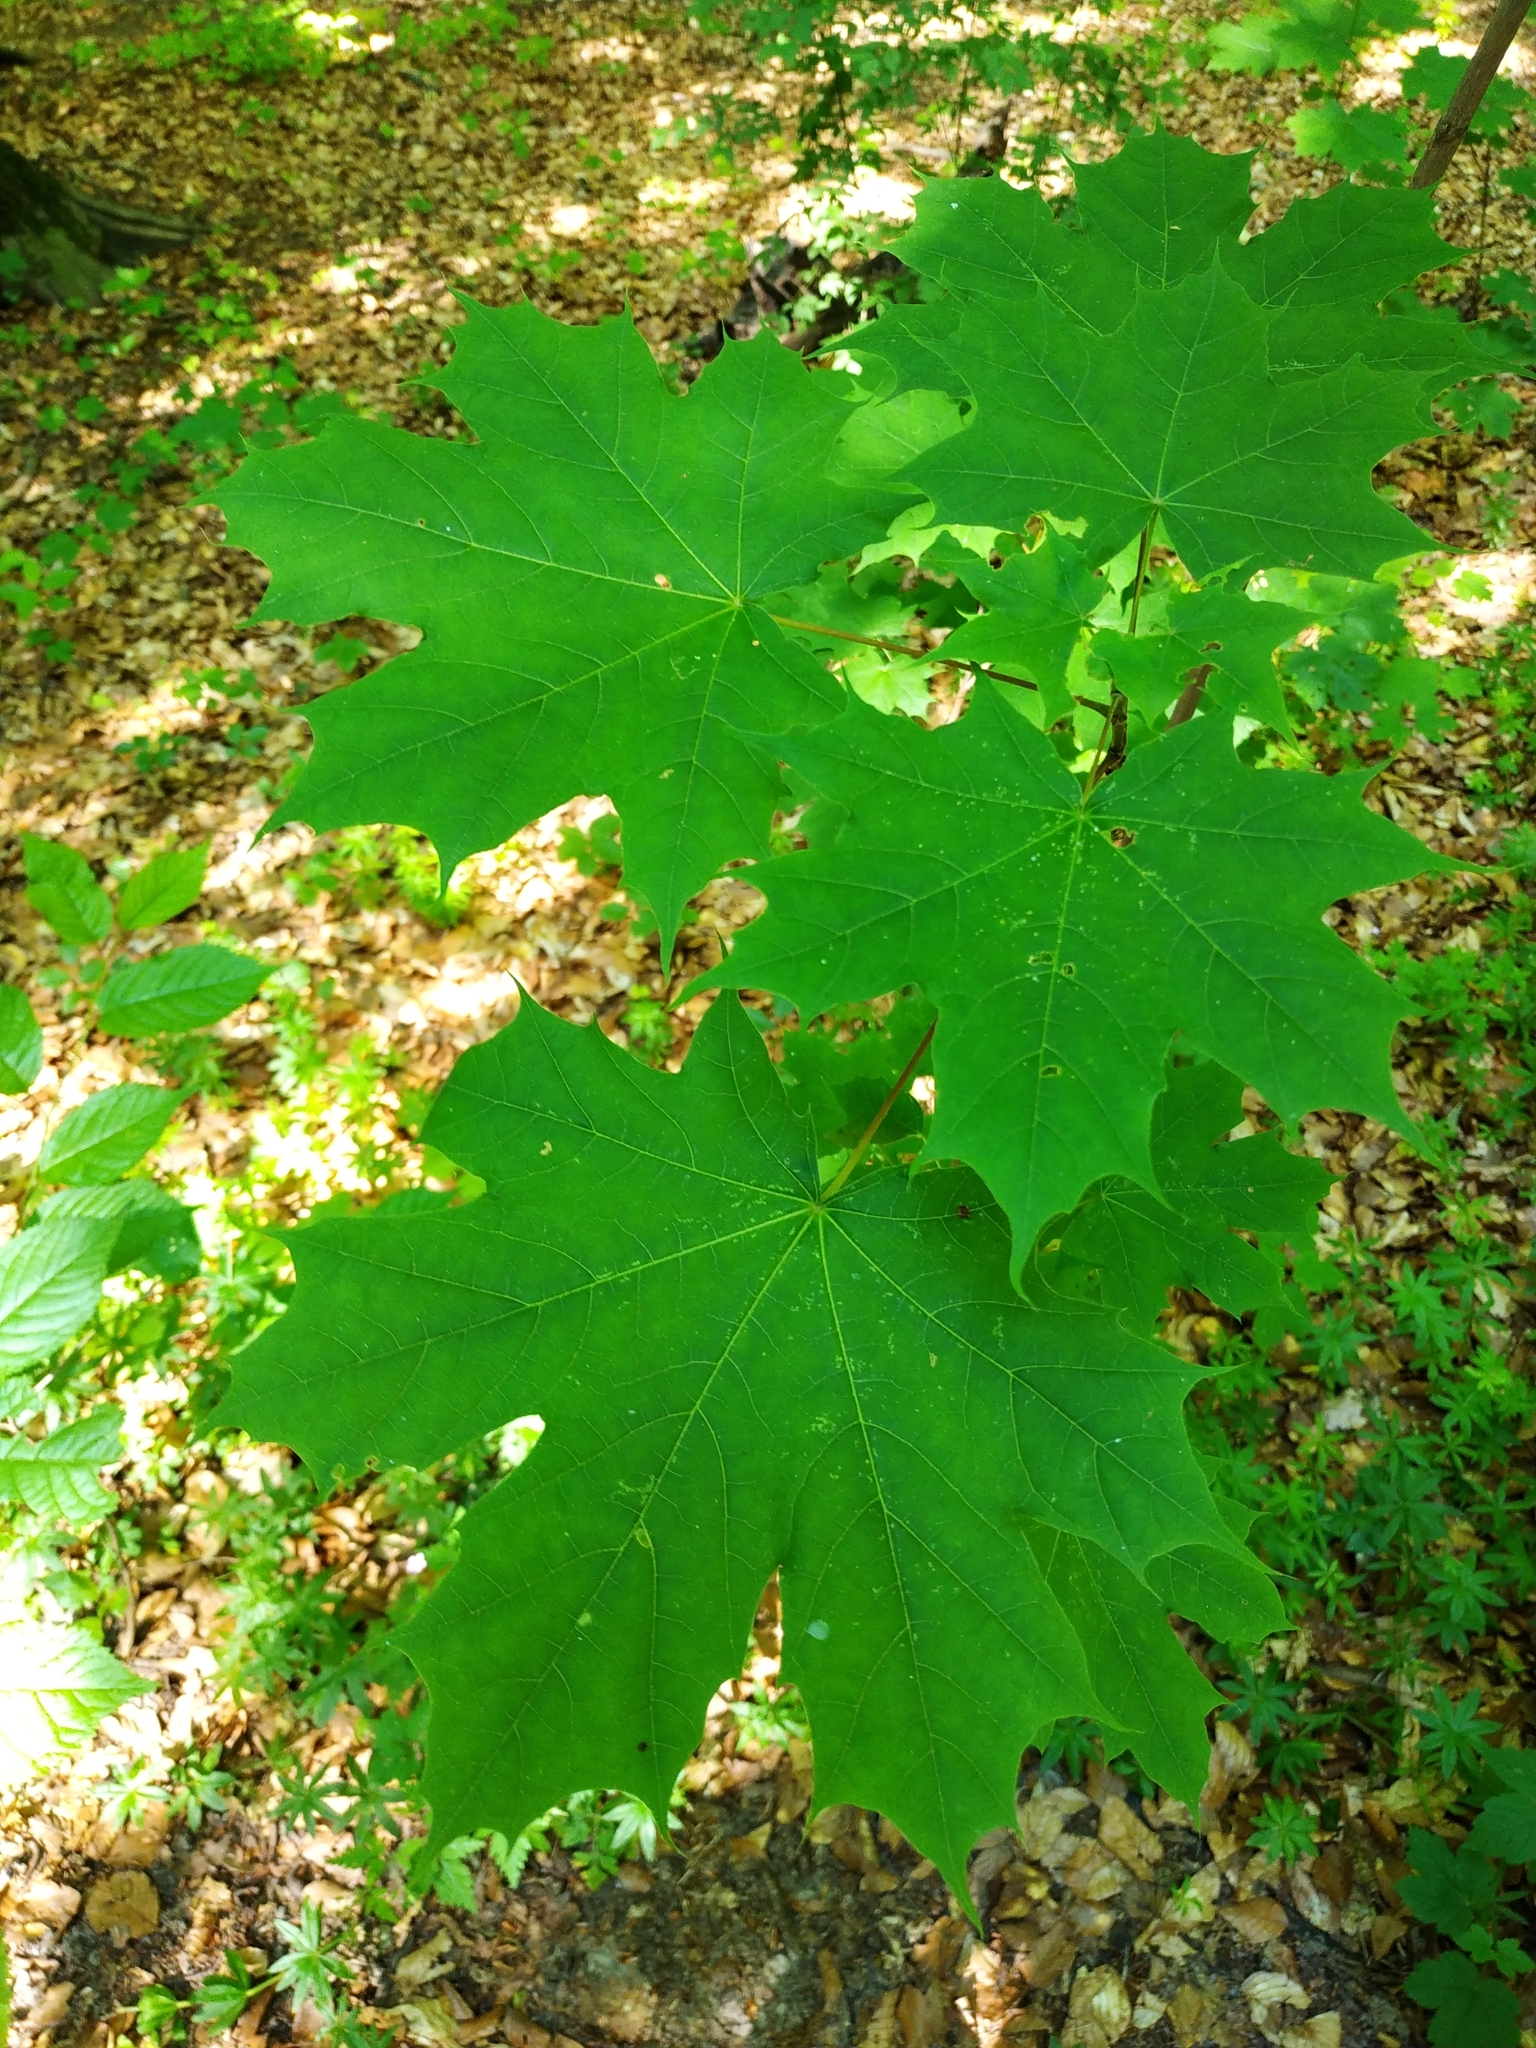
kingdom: Plantae
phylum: Tracheophyta
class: Magnoliopsida
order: Sapindales
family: Sapindaceae
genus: Acer
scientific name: Acer platanoides
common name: Norway maple
